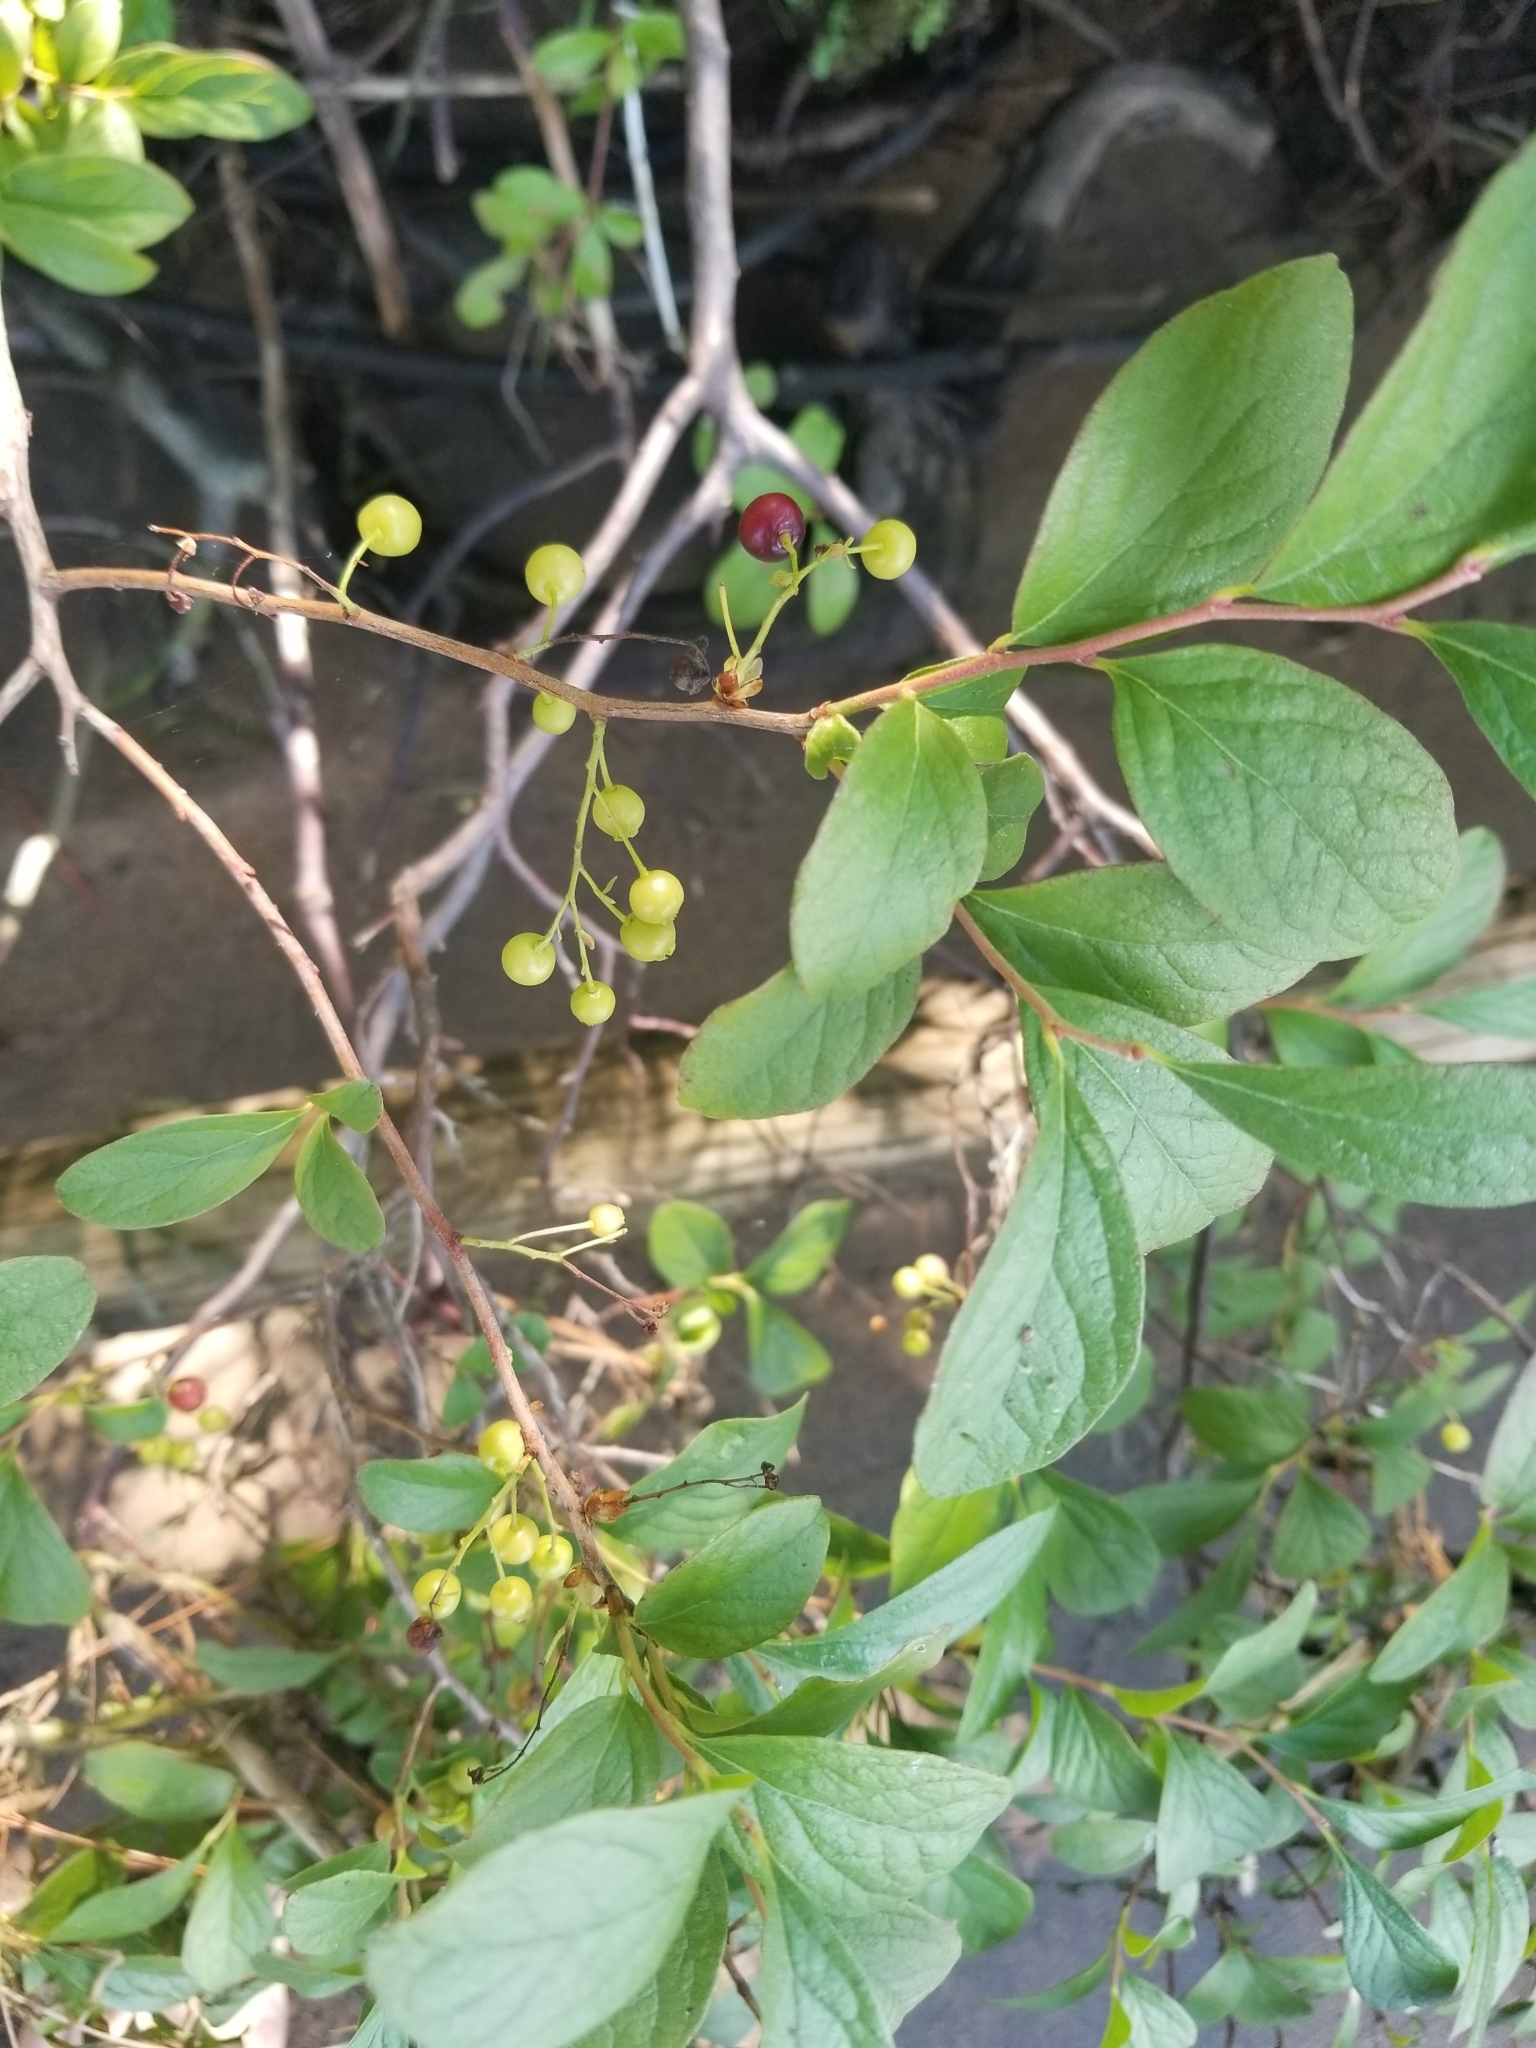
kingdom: Plantae
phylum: Tracheophyta
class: Magnoliopsida
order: Ericales
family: Ericaceae
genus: Gaylussacia
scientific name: Gaylussacia baccata
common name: Black huckleberry
